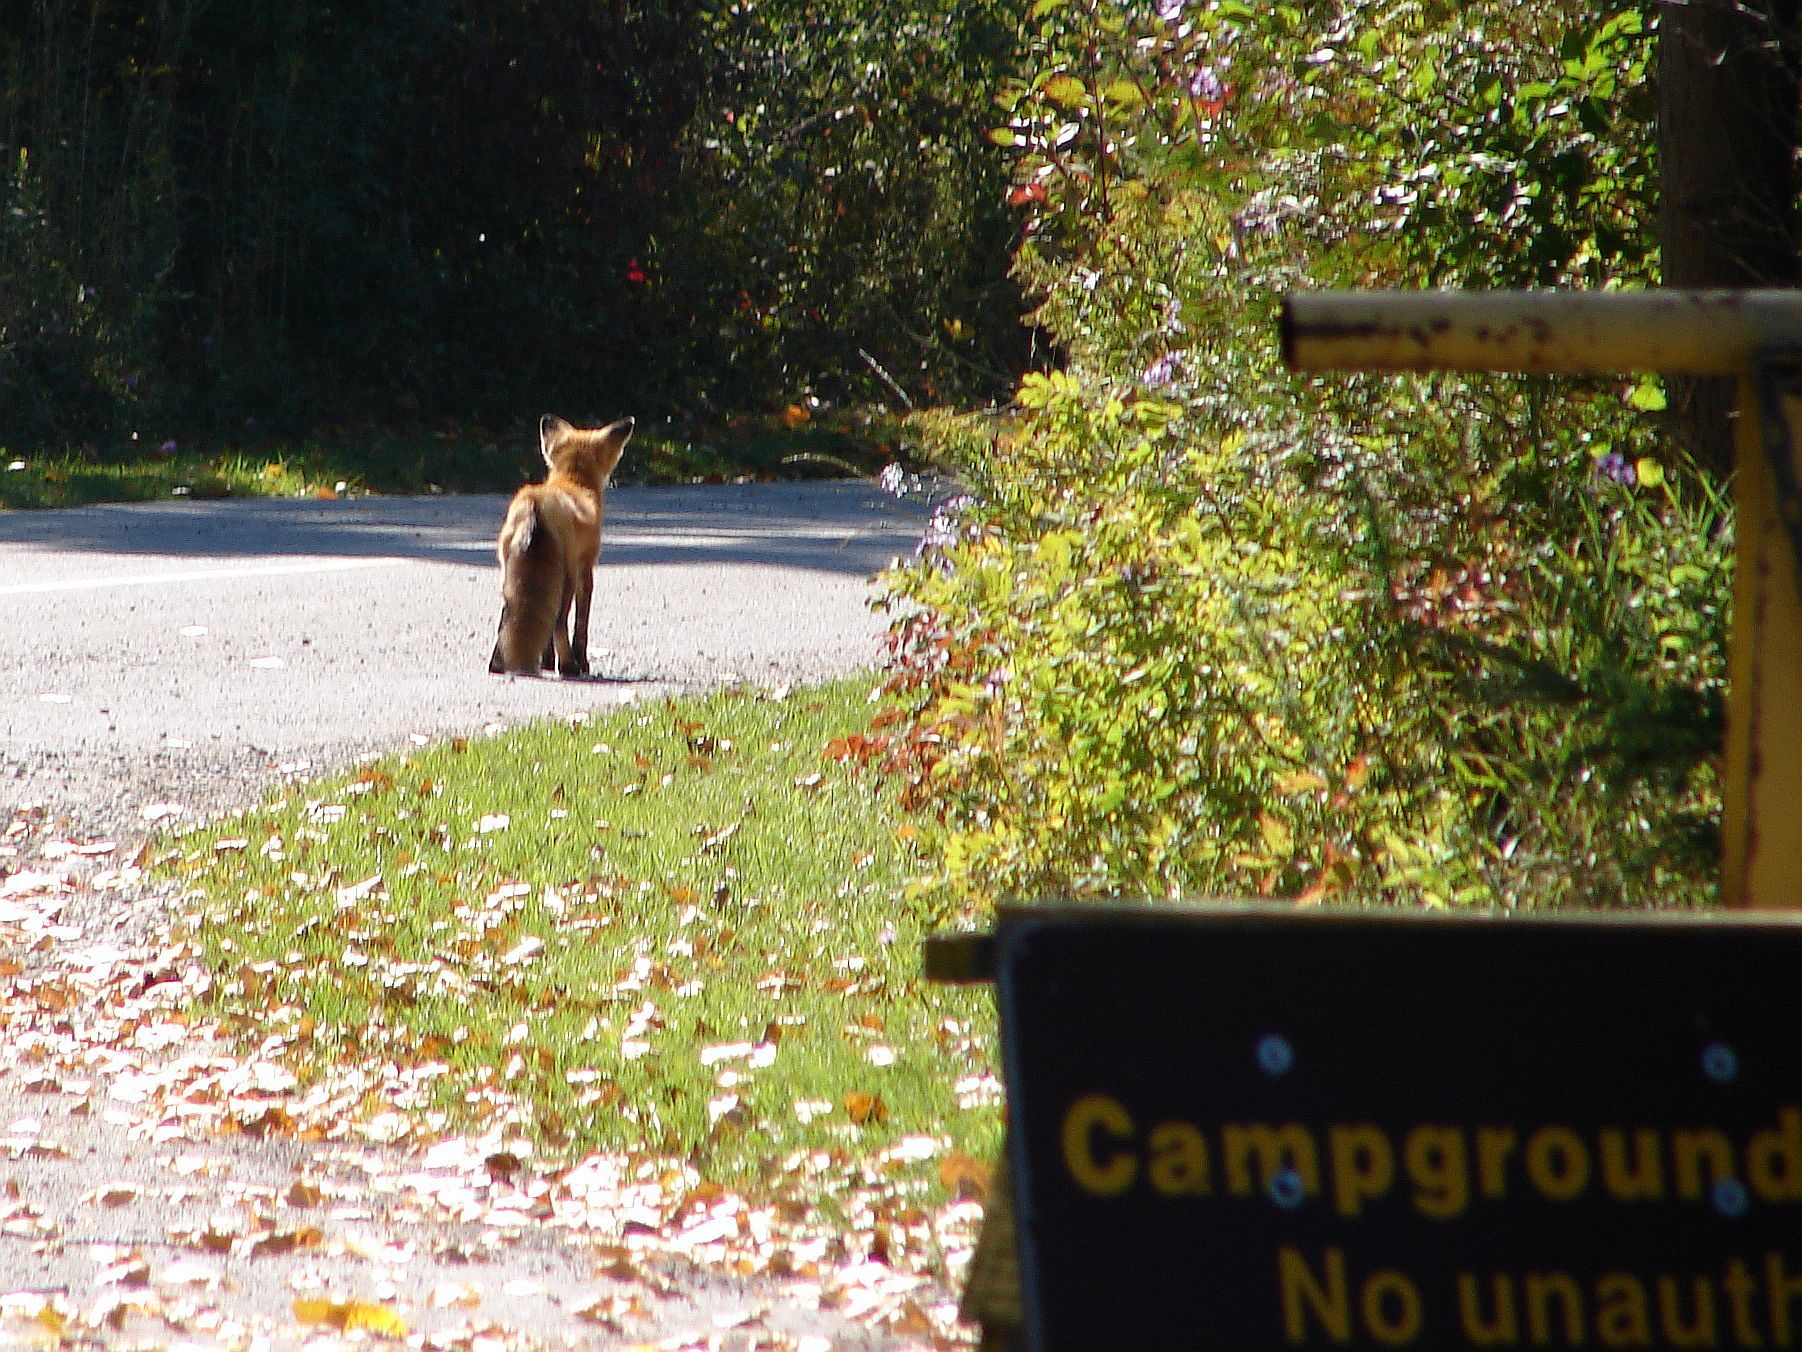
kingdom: Animalia
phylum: Chordata
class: Mammalia
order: Carnivora
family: Canidae
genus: Vulpes
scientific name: Vulpes vulpes
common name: Red fox
